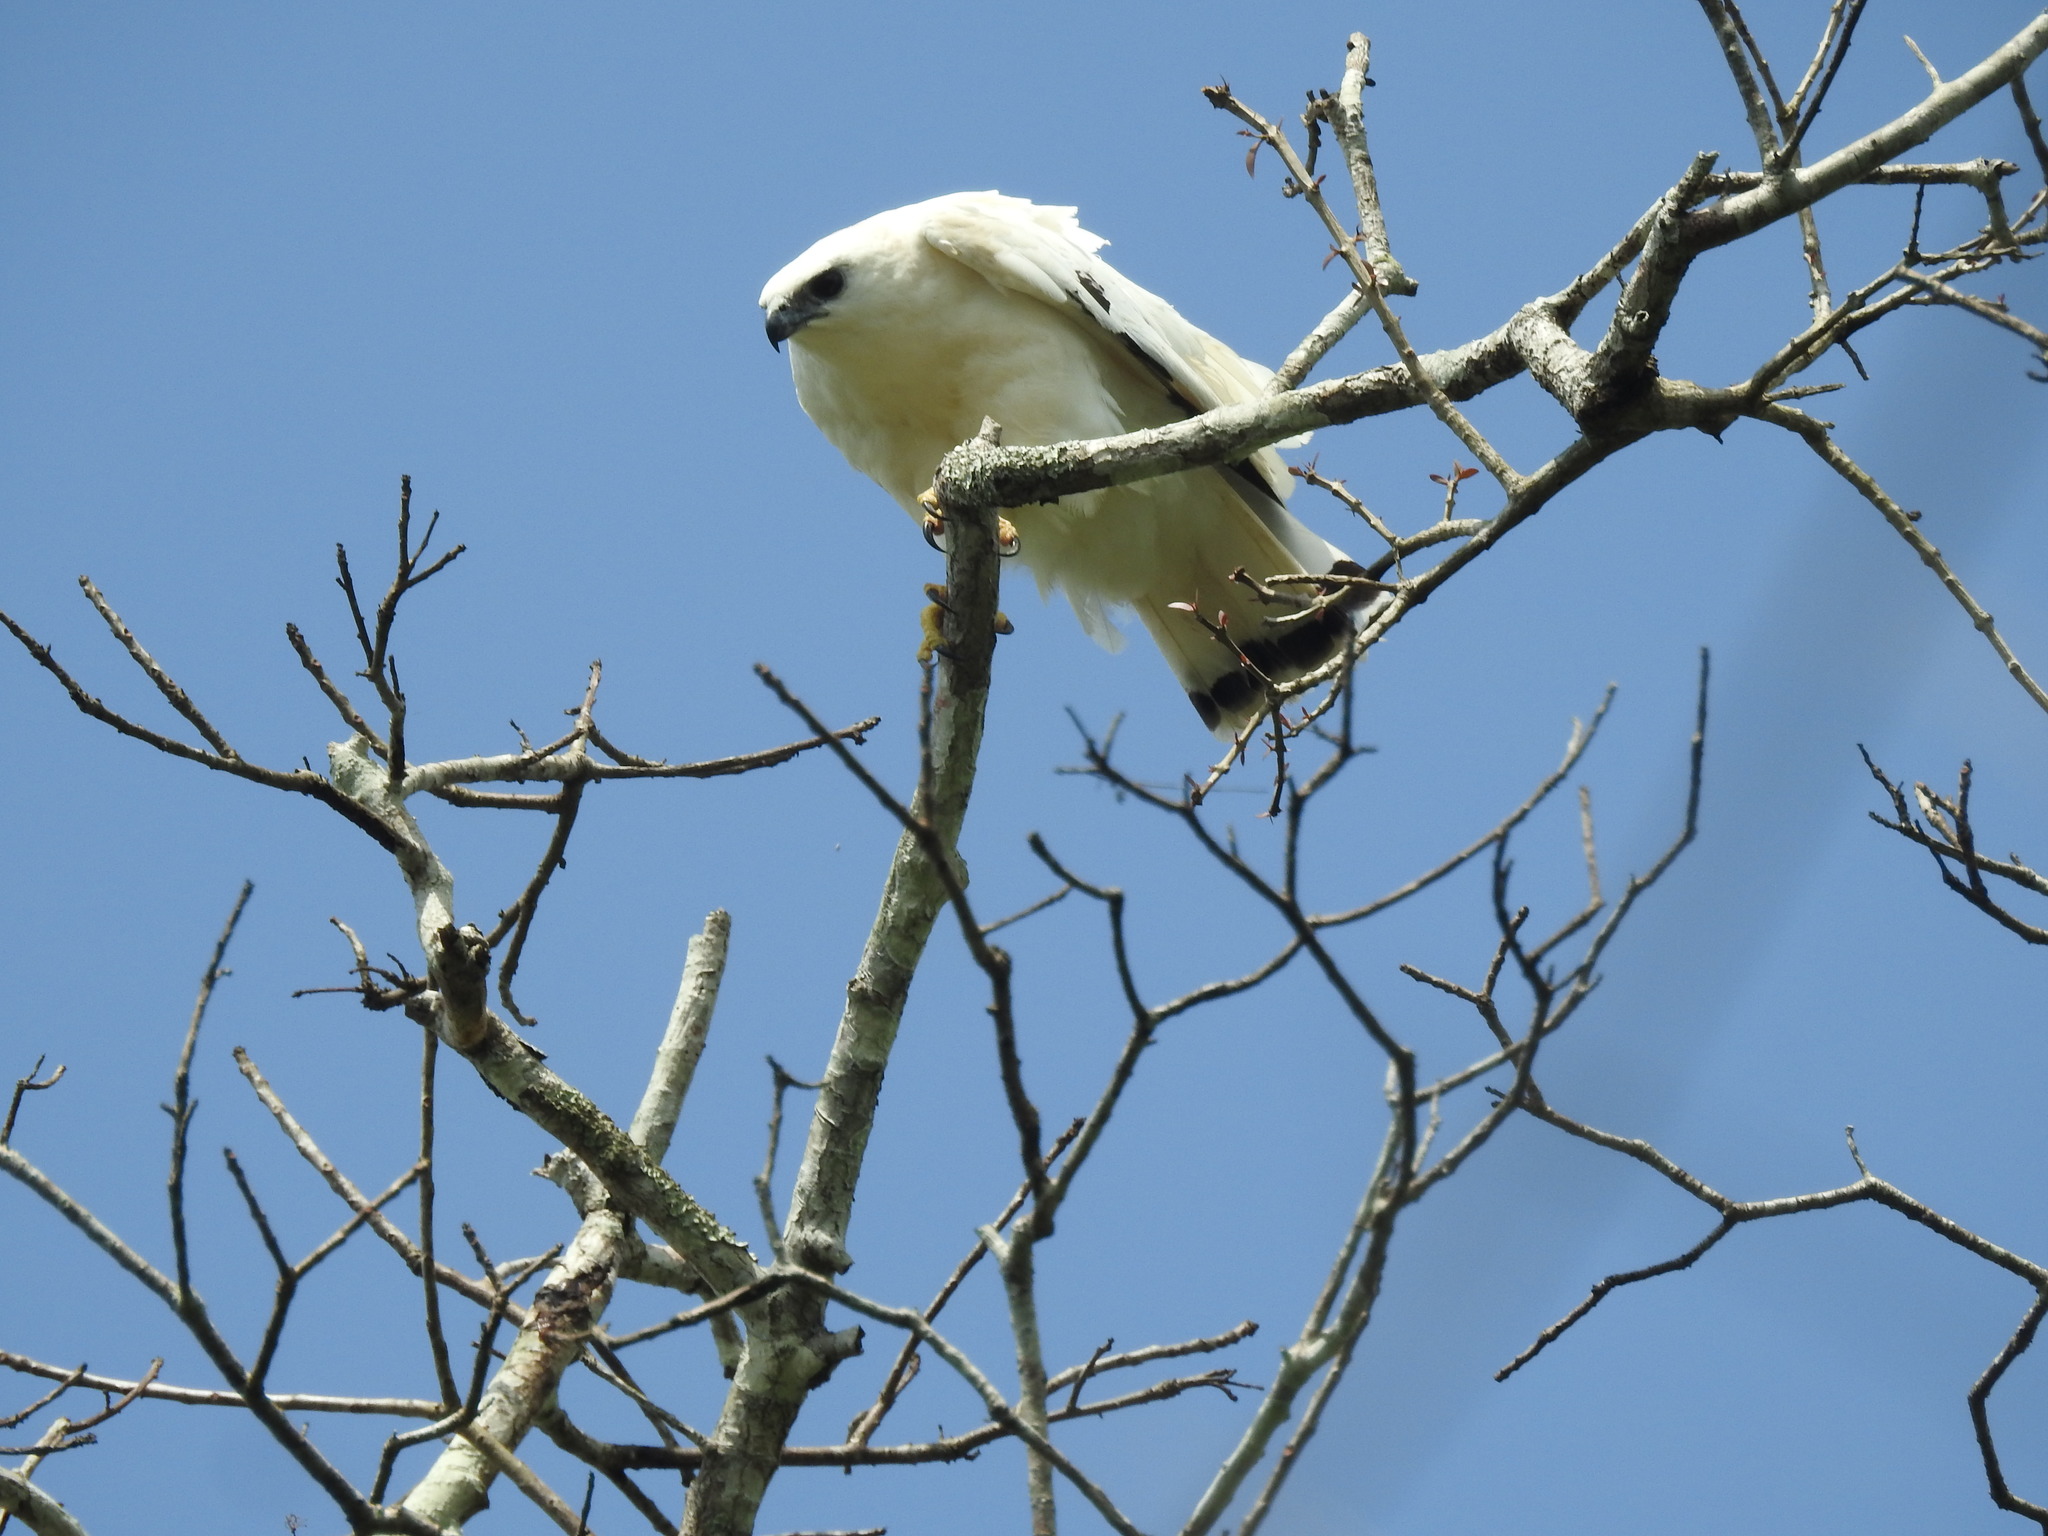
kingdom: Animalia
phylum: Chordata
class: Aves
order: Accipitriformes
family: Accipitridae
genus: Leucopternis
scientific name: Leucopternis albicollis
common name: White hawk
